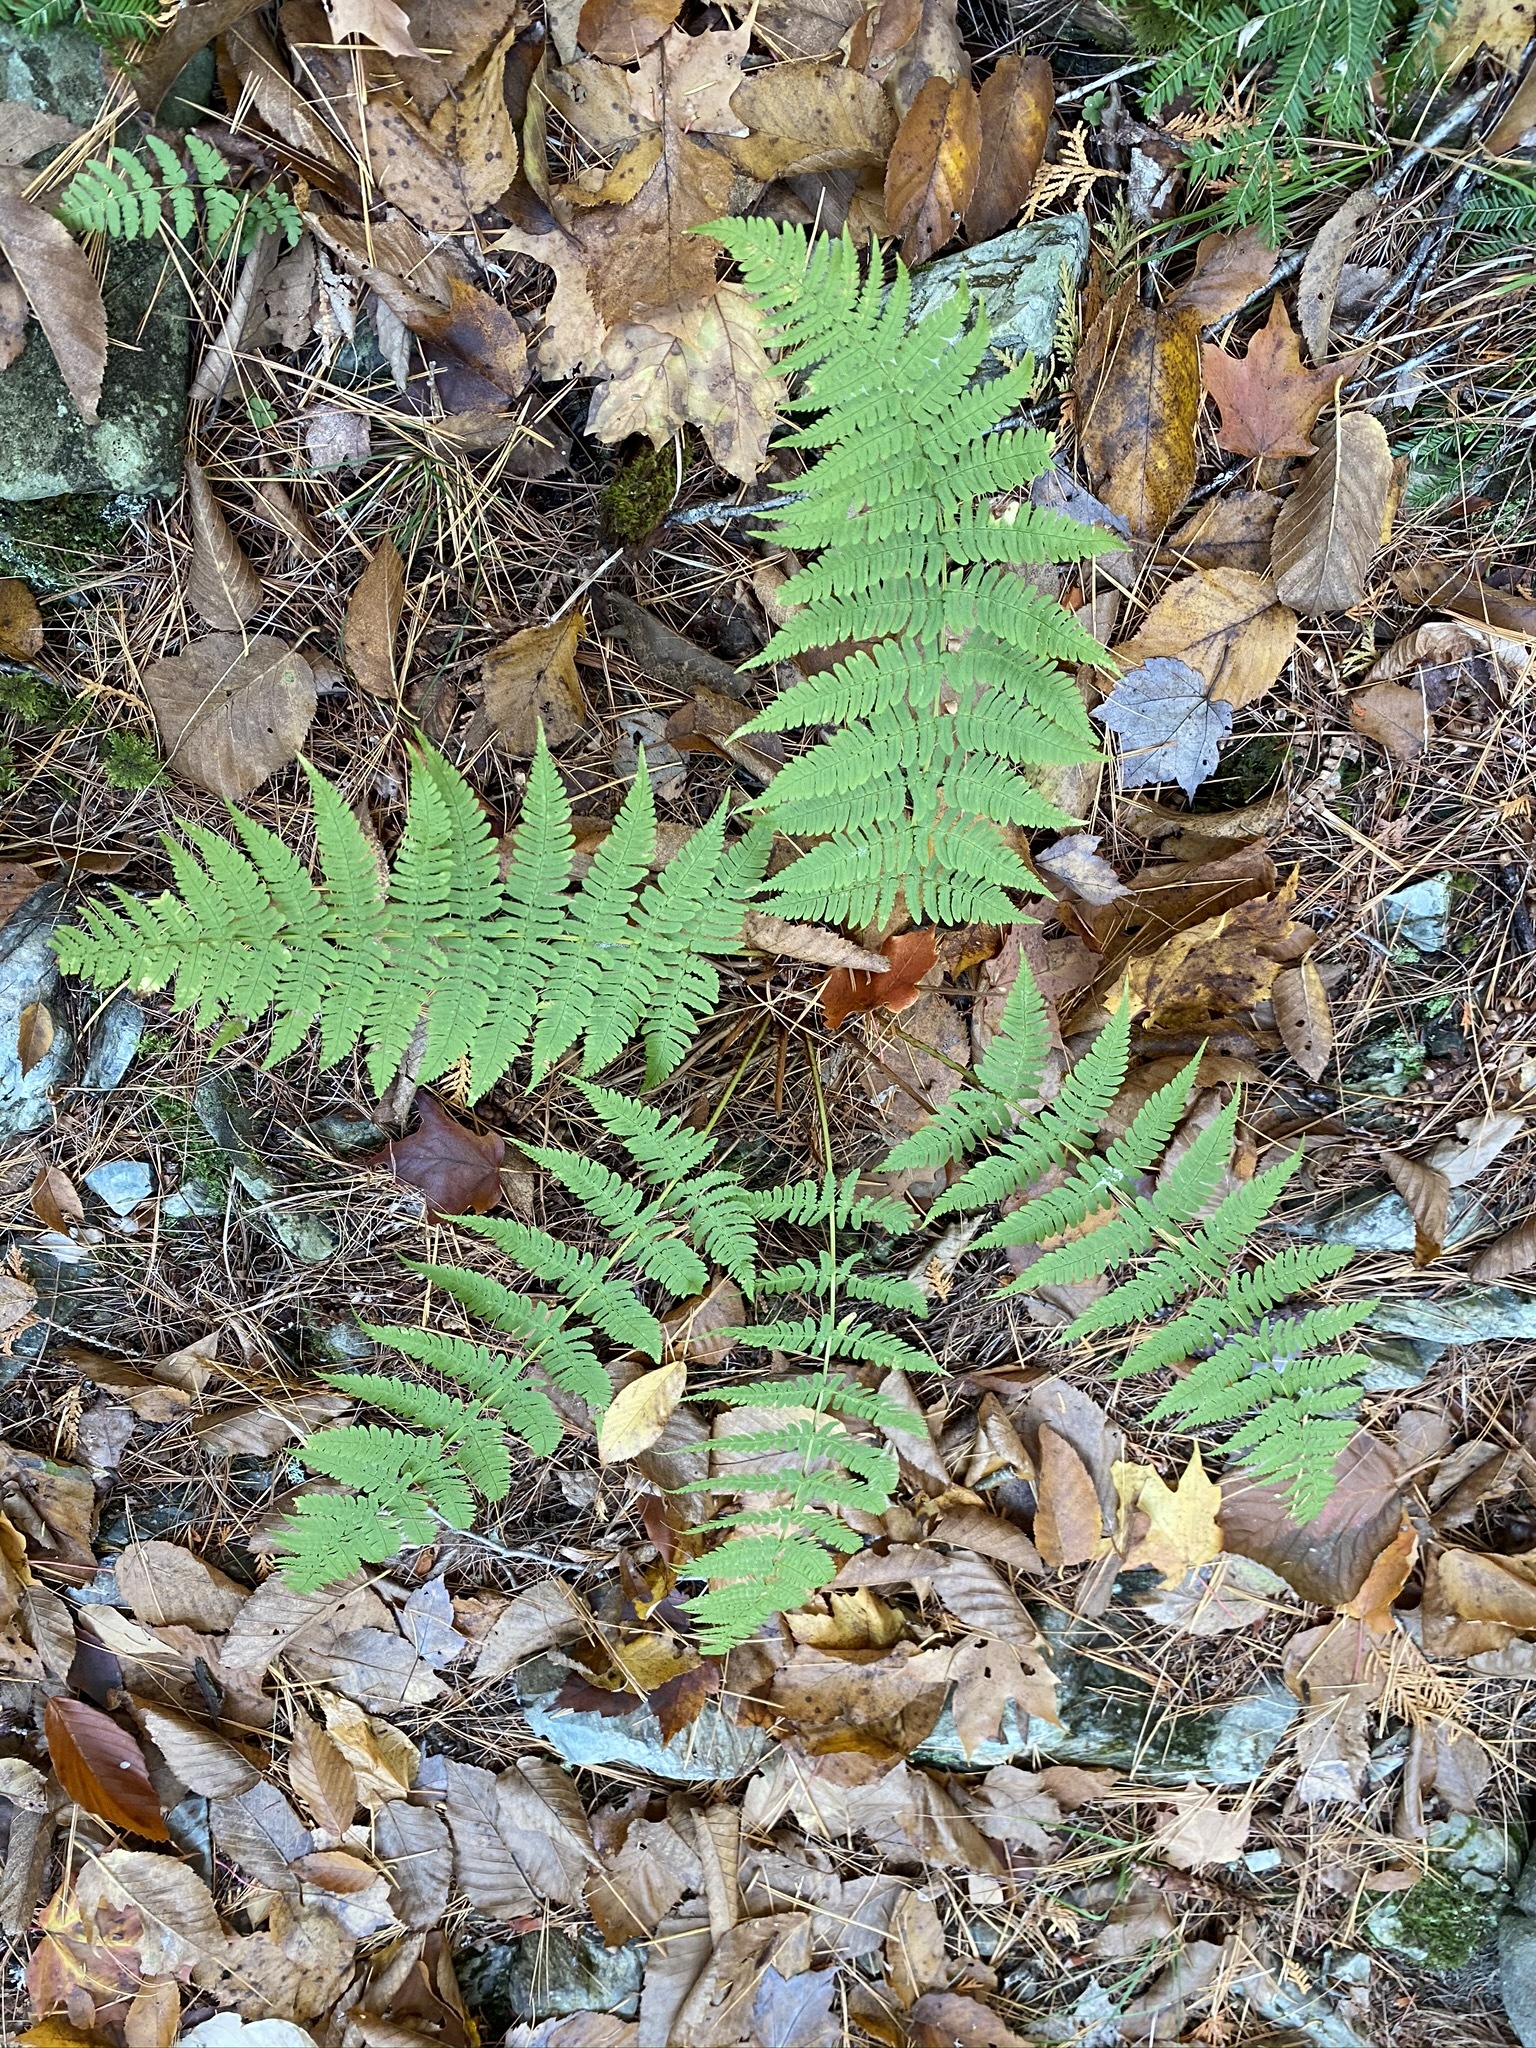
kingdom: Plantae
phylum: Tracheophyta
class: Polypodiopsida
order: Polypodiales
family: Dryopteridaceae
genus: Dryopteris
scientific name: Dryopteris marginalis
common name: Marginal wood fern
